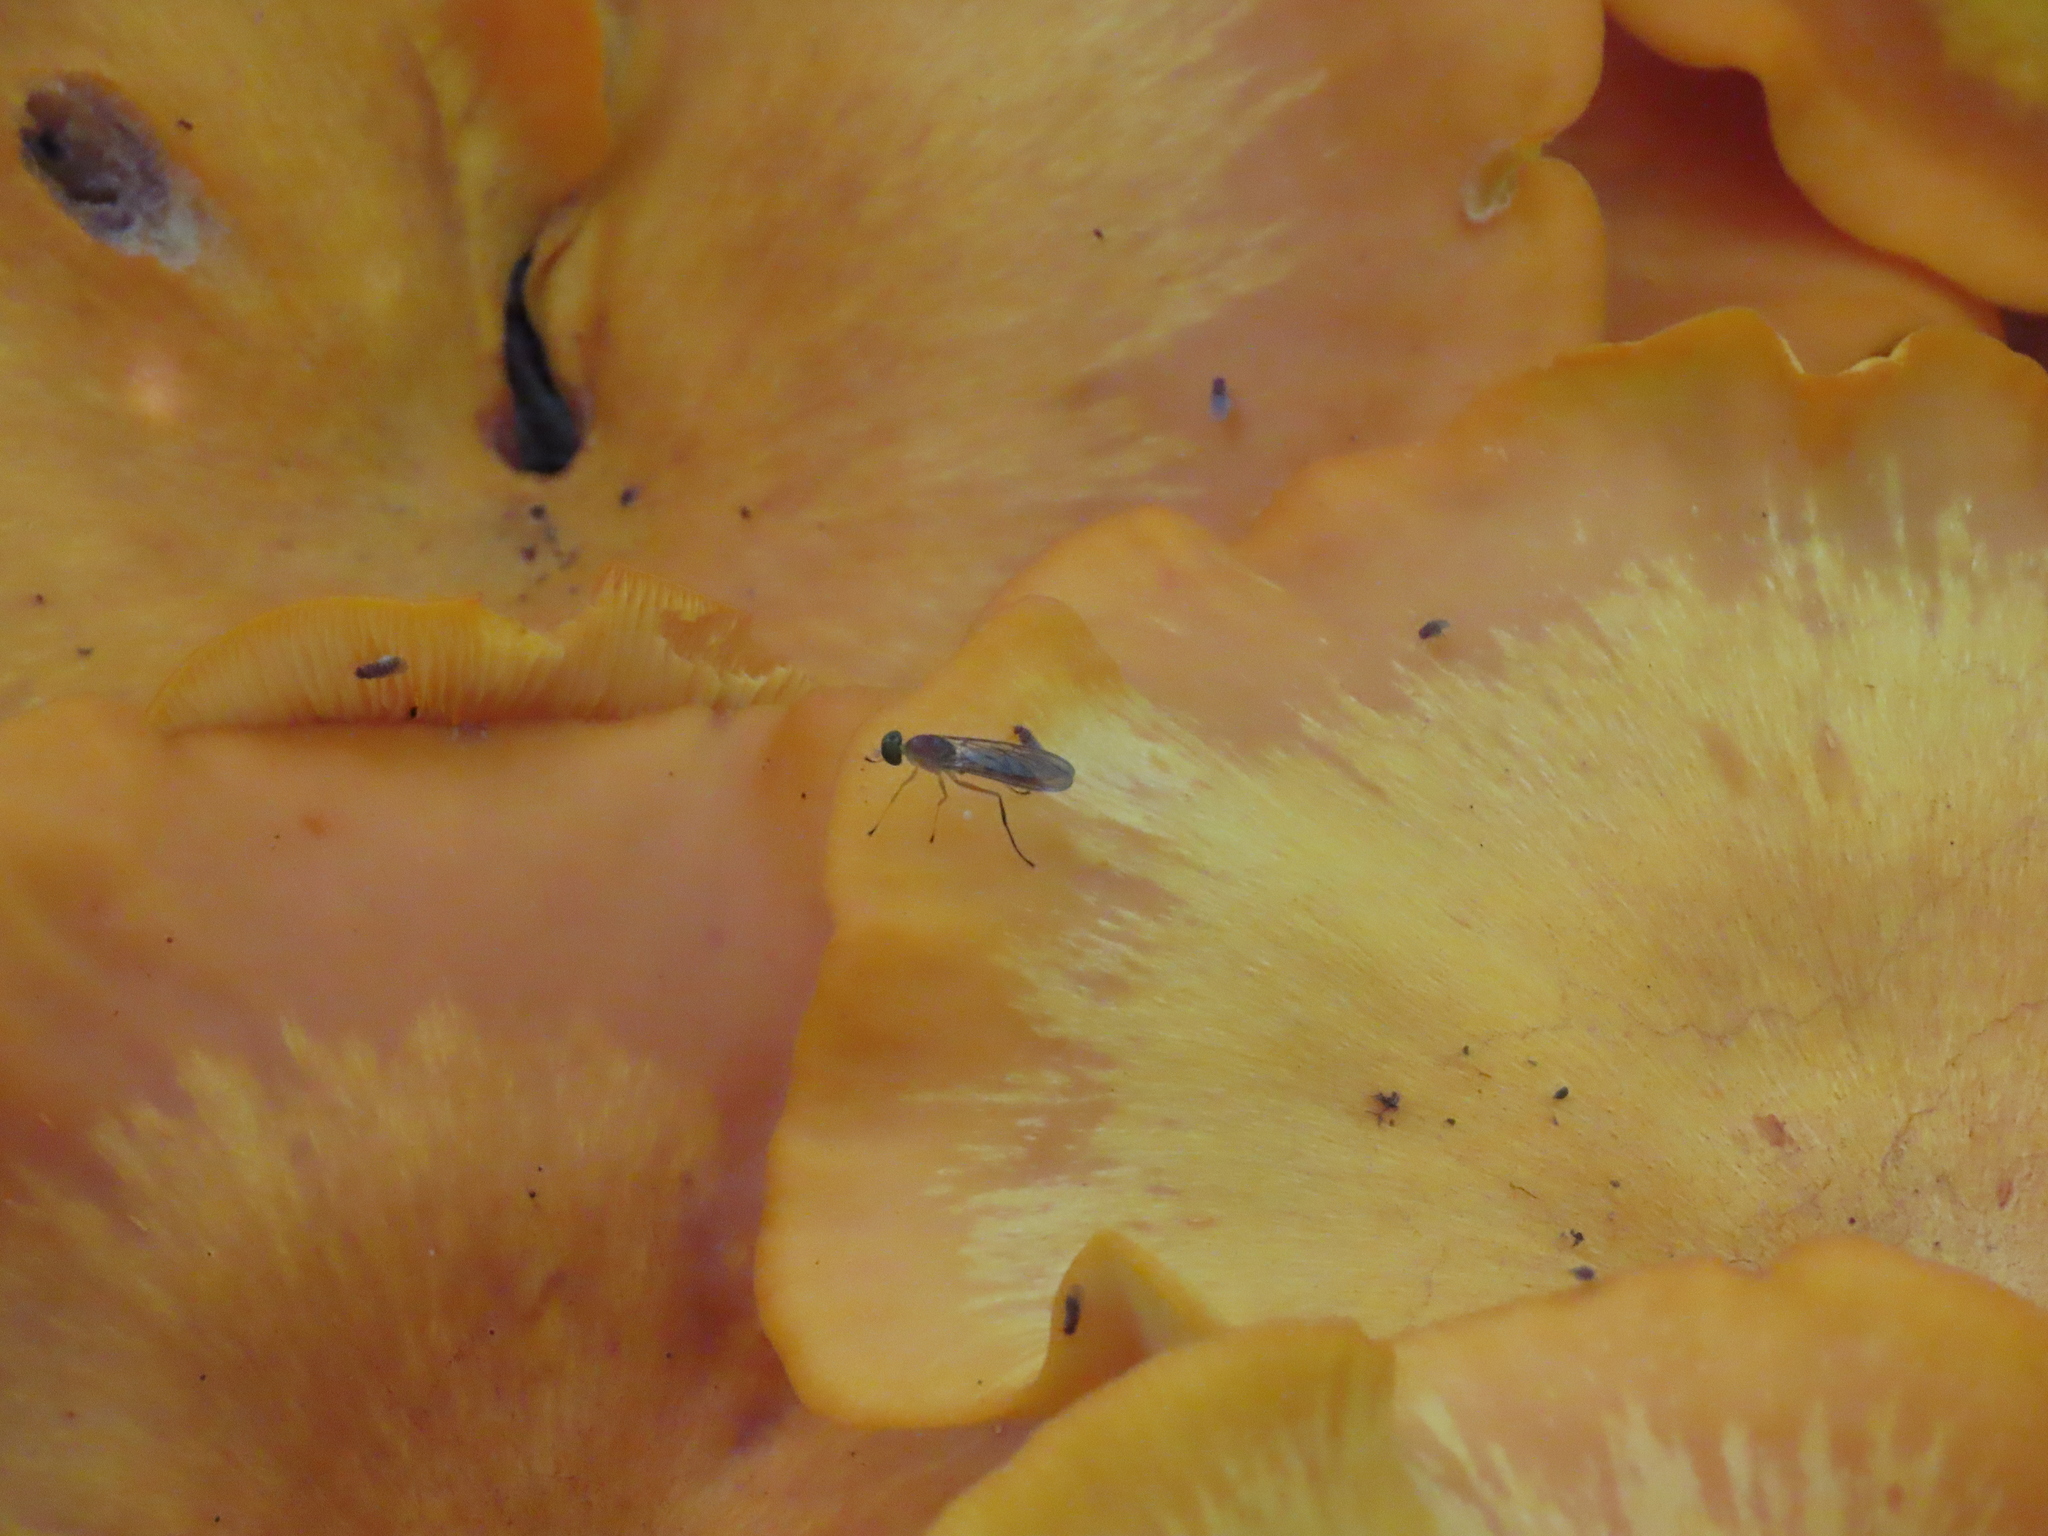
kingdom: Animalia
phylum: Arthropoda
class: Insecta
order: Diptera
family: Stratiomyidae
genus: Ptecticus
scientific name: Ptecticus trivittatus
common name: Compost fly
